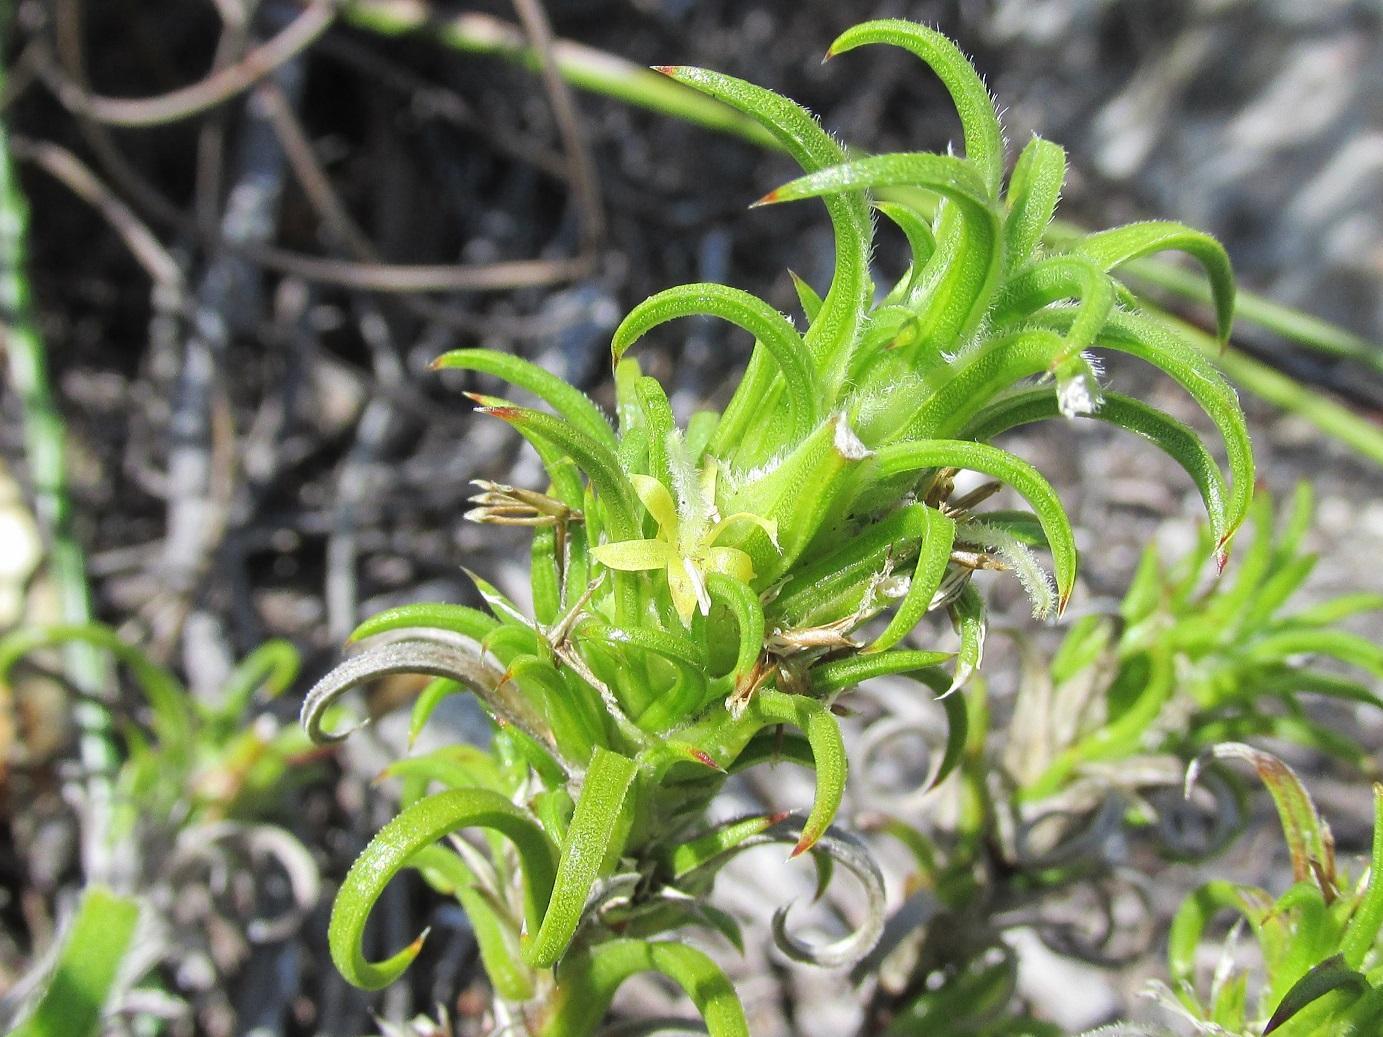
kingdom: Plantae
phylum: Tracheophyta
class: Magnoliopsida
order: Gentianales
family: Rubiaceae
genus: Carpacoce
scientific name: Carpacoce heteromorpha
